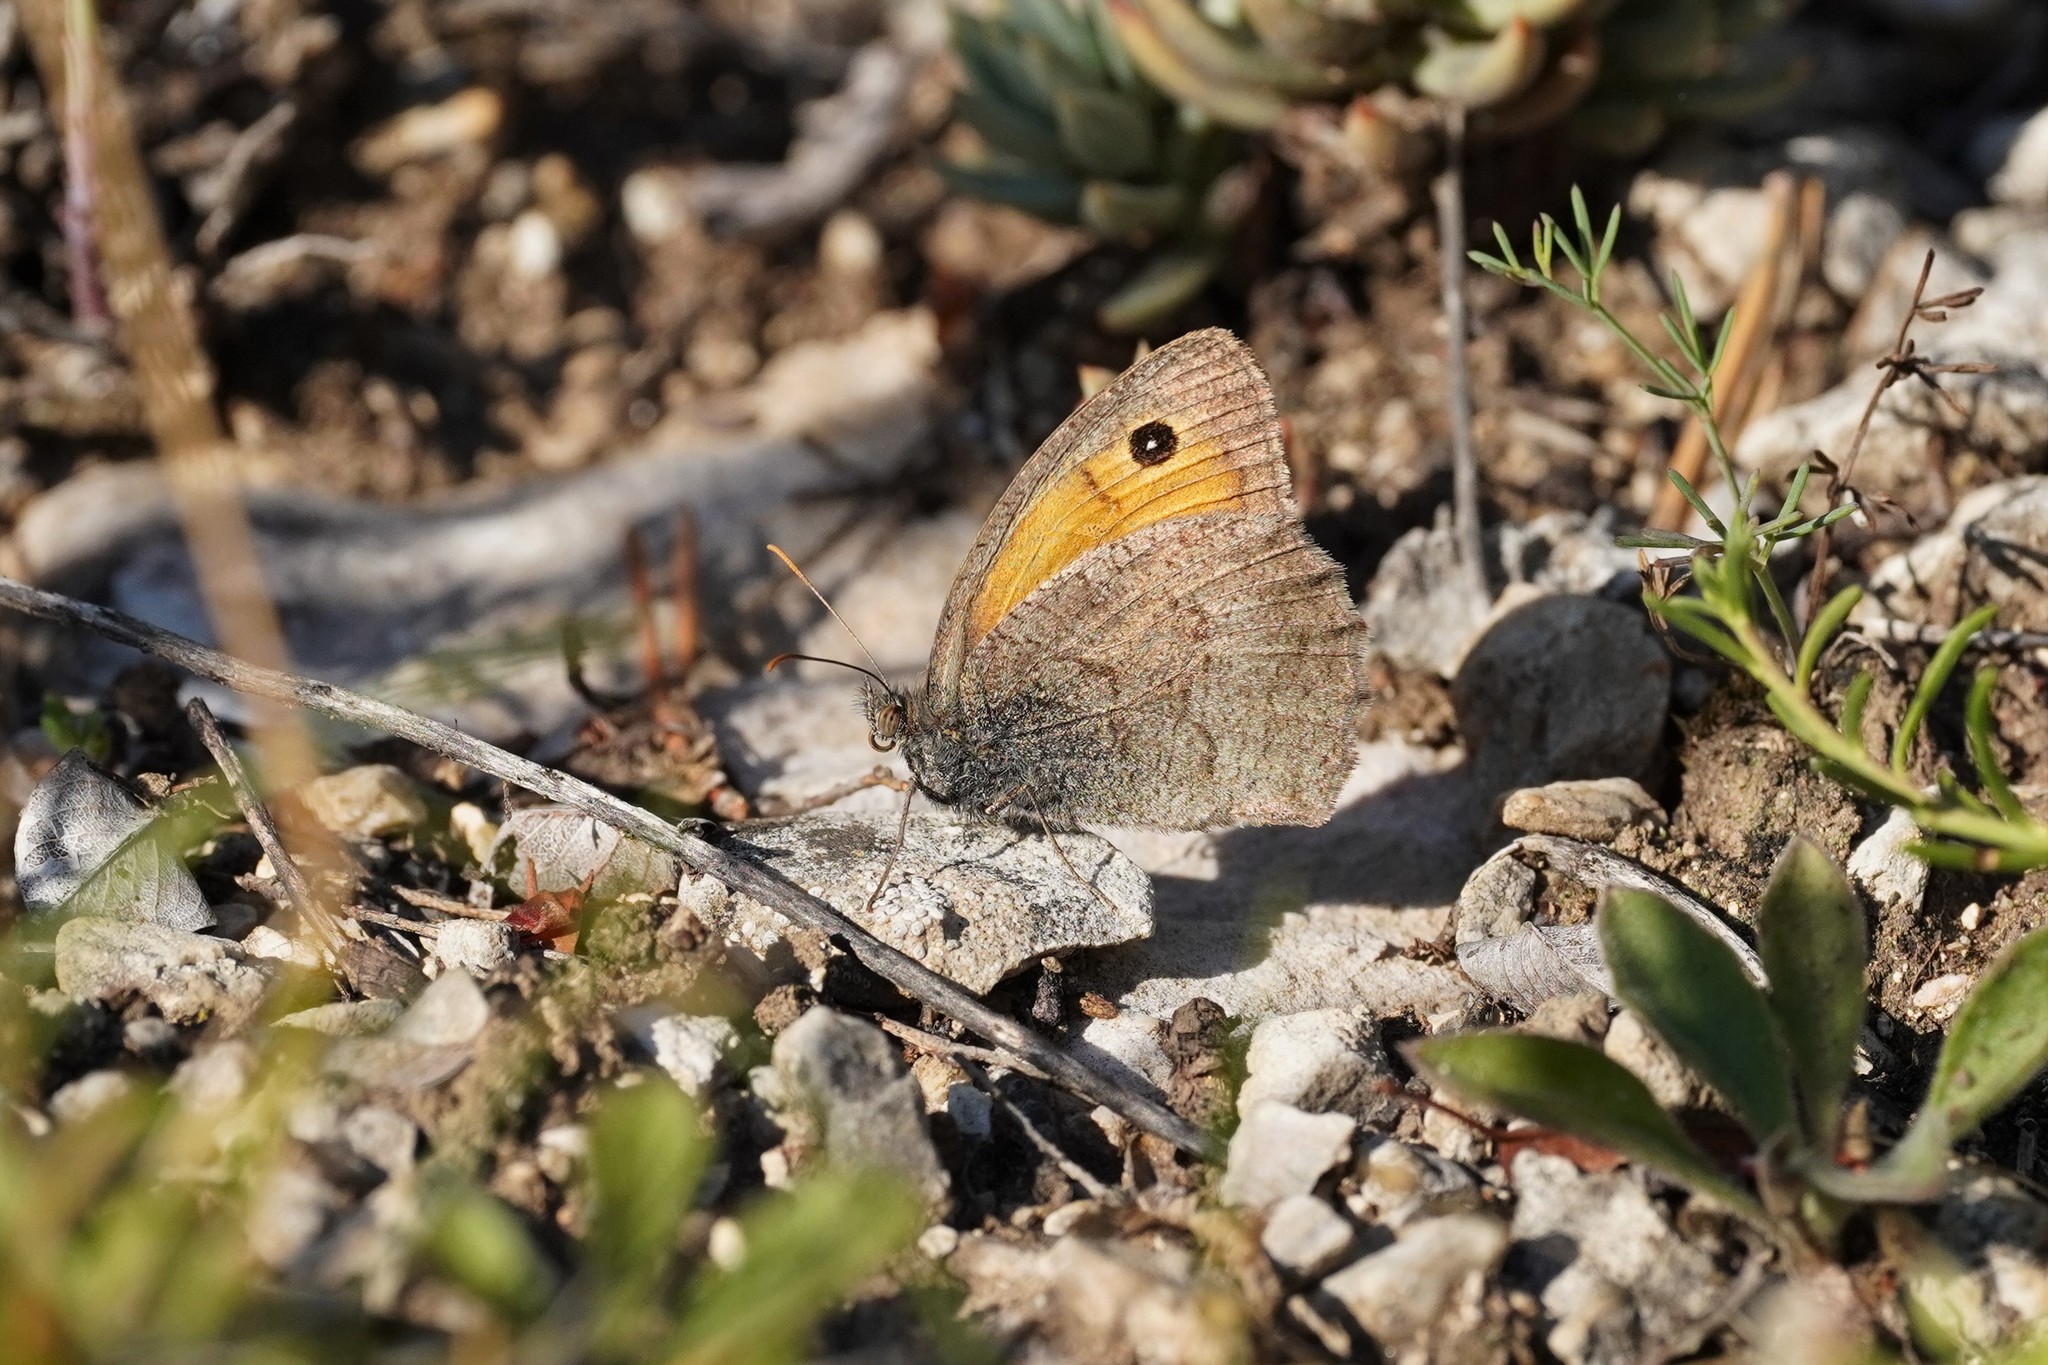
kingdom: Animalia
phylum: Arthropoda
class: Insecta
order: Lepidoptera
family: Nymphalidae
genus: Hyponephele
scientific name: Hyponephele lycaon
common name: Dusky meadow brown
